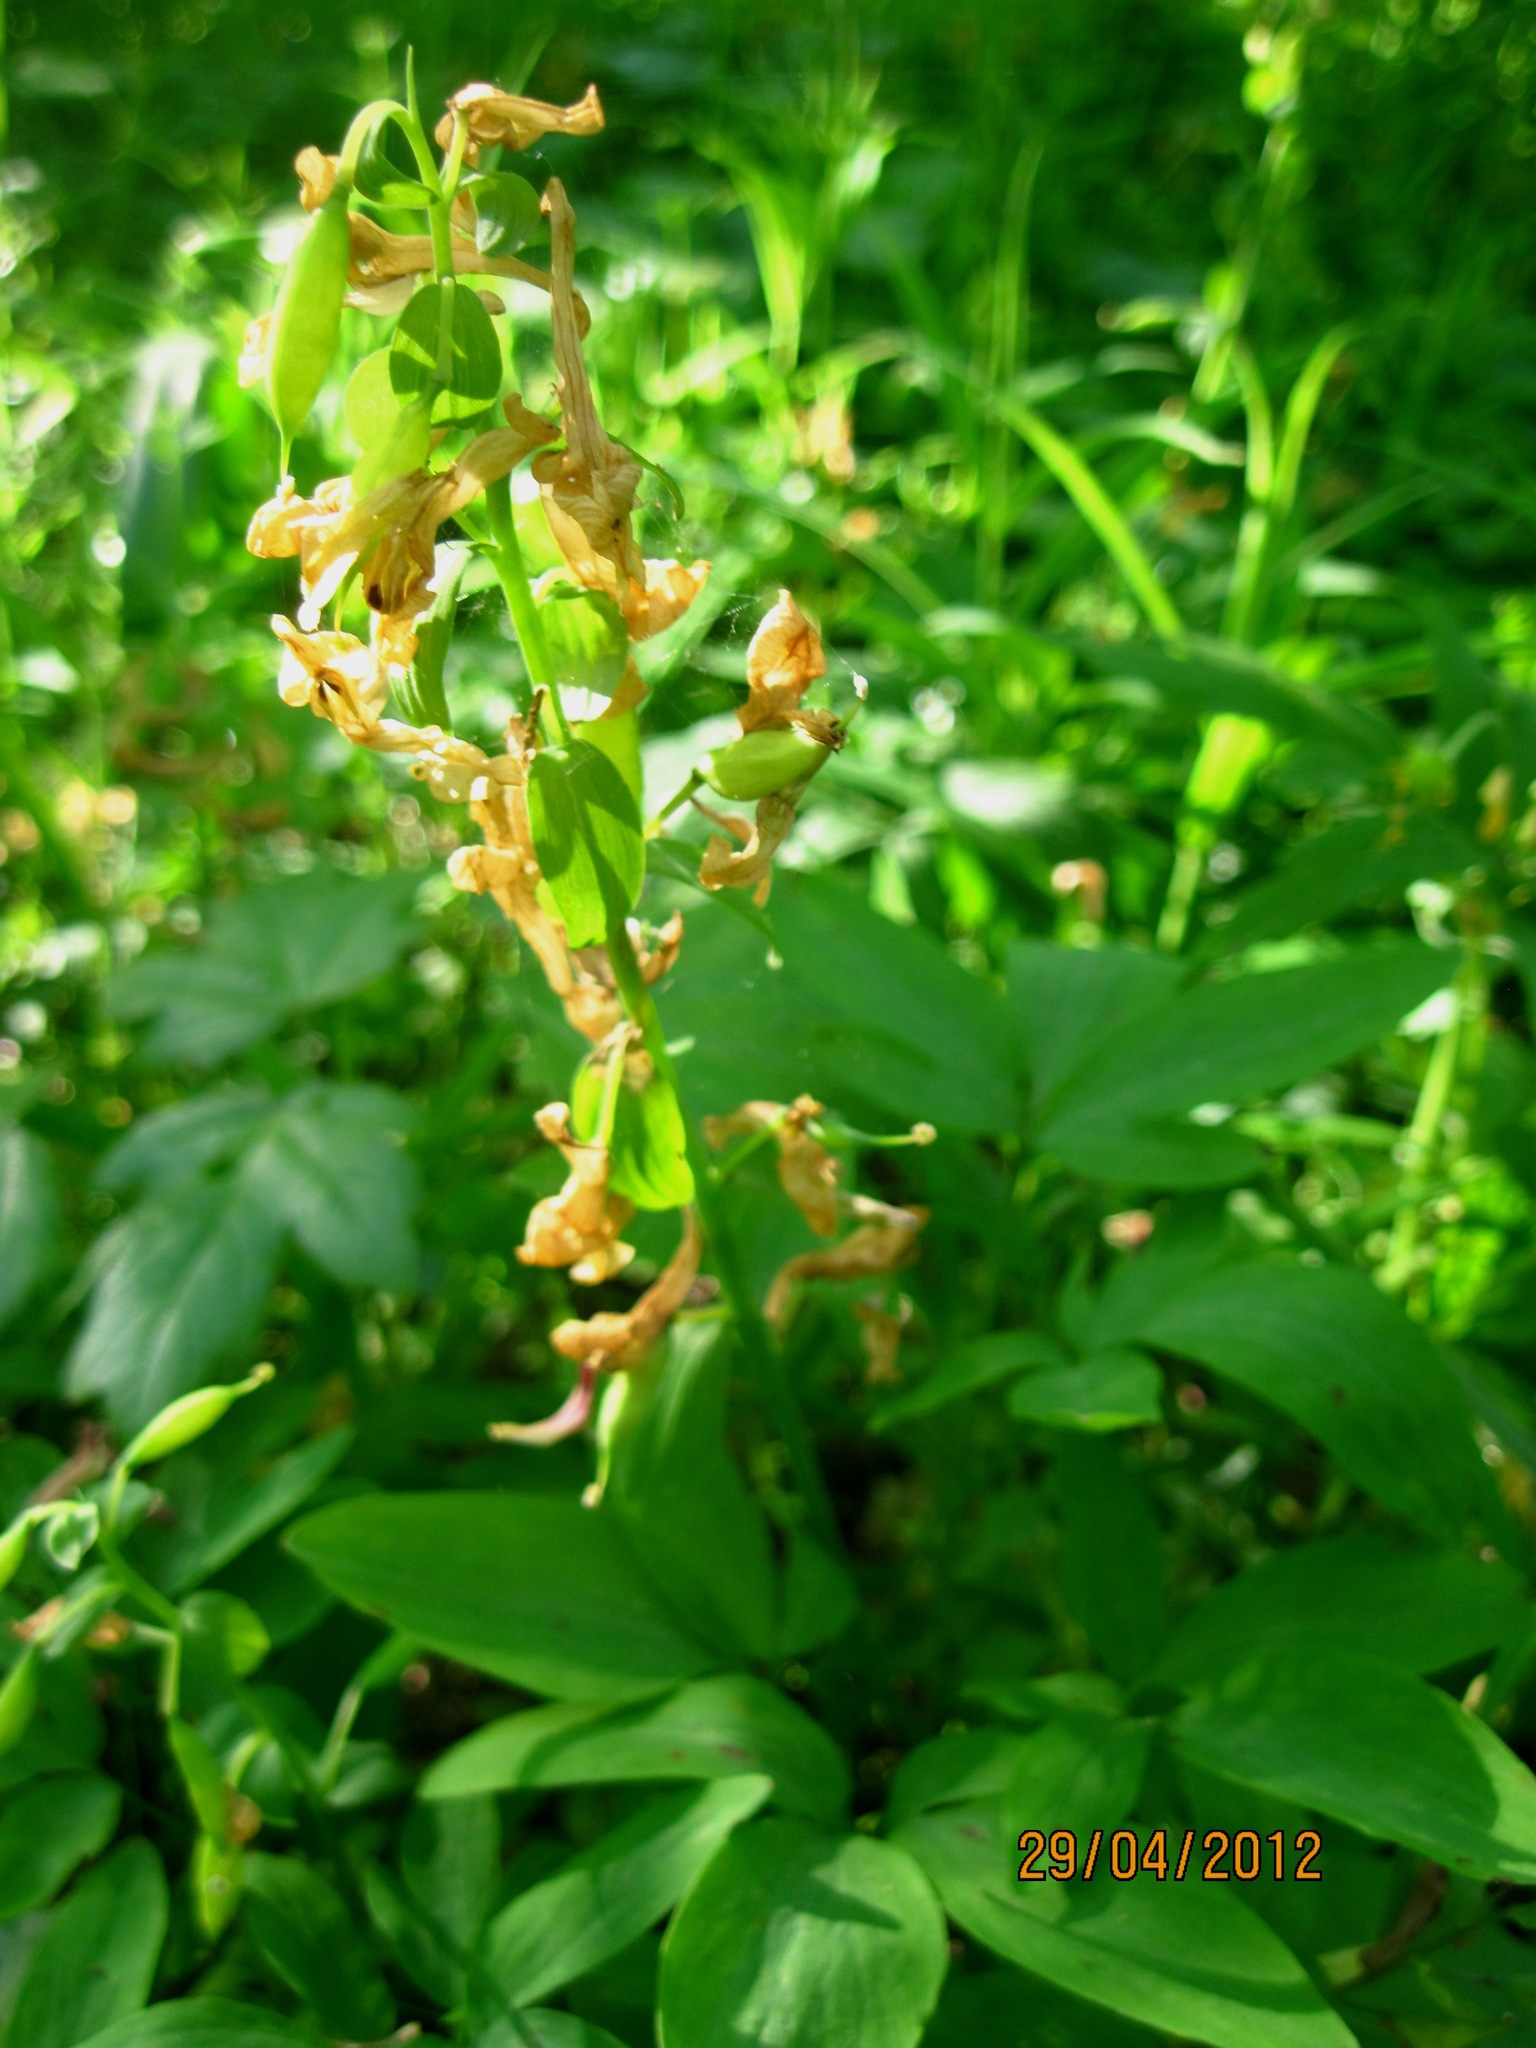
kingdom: Plantae
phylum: Tracheophyta
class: Magnoliopsida
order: Ranunculales
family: Papaveraceae
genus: Corydalis
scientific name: Corydalis cava
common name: Hollowroot
